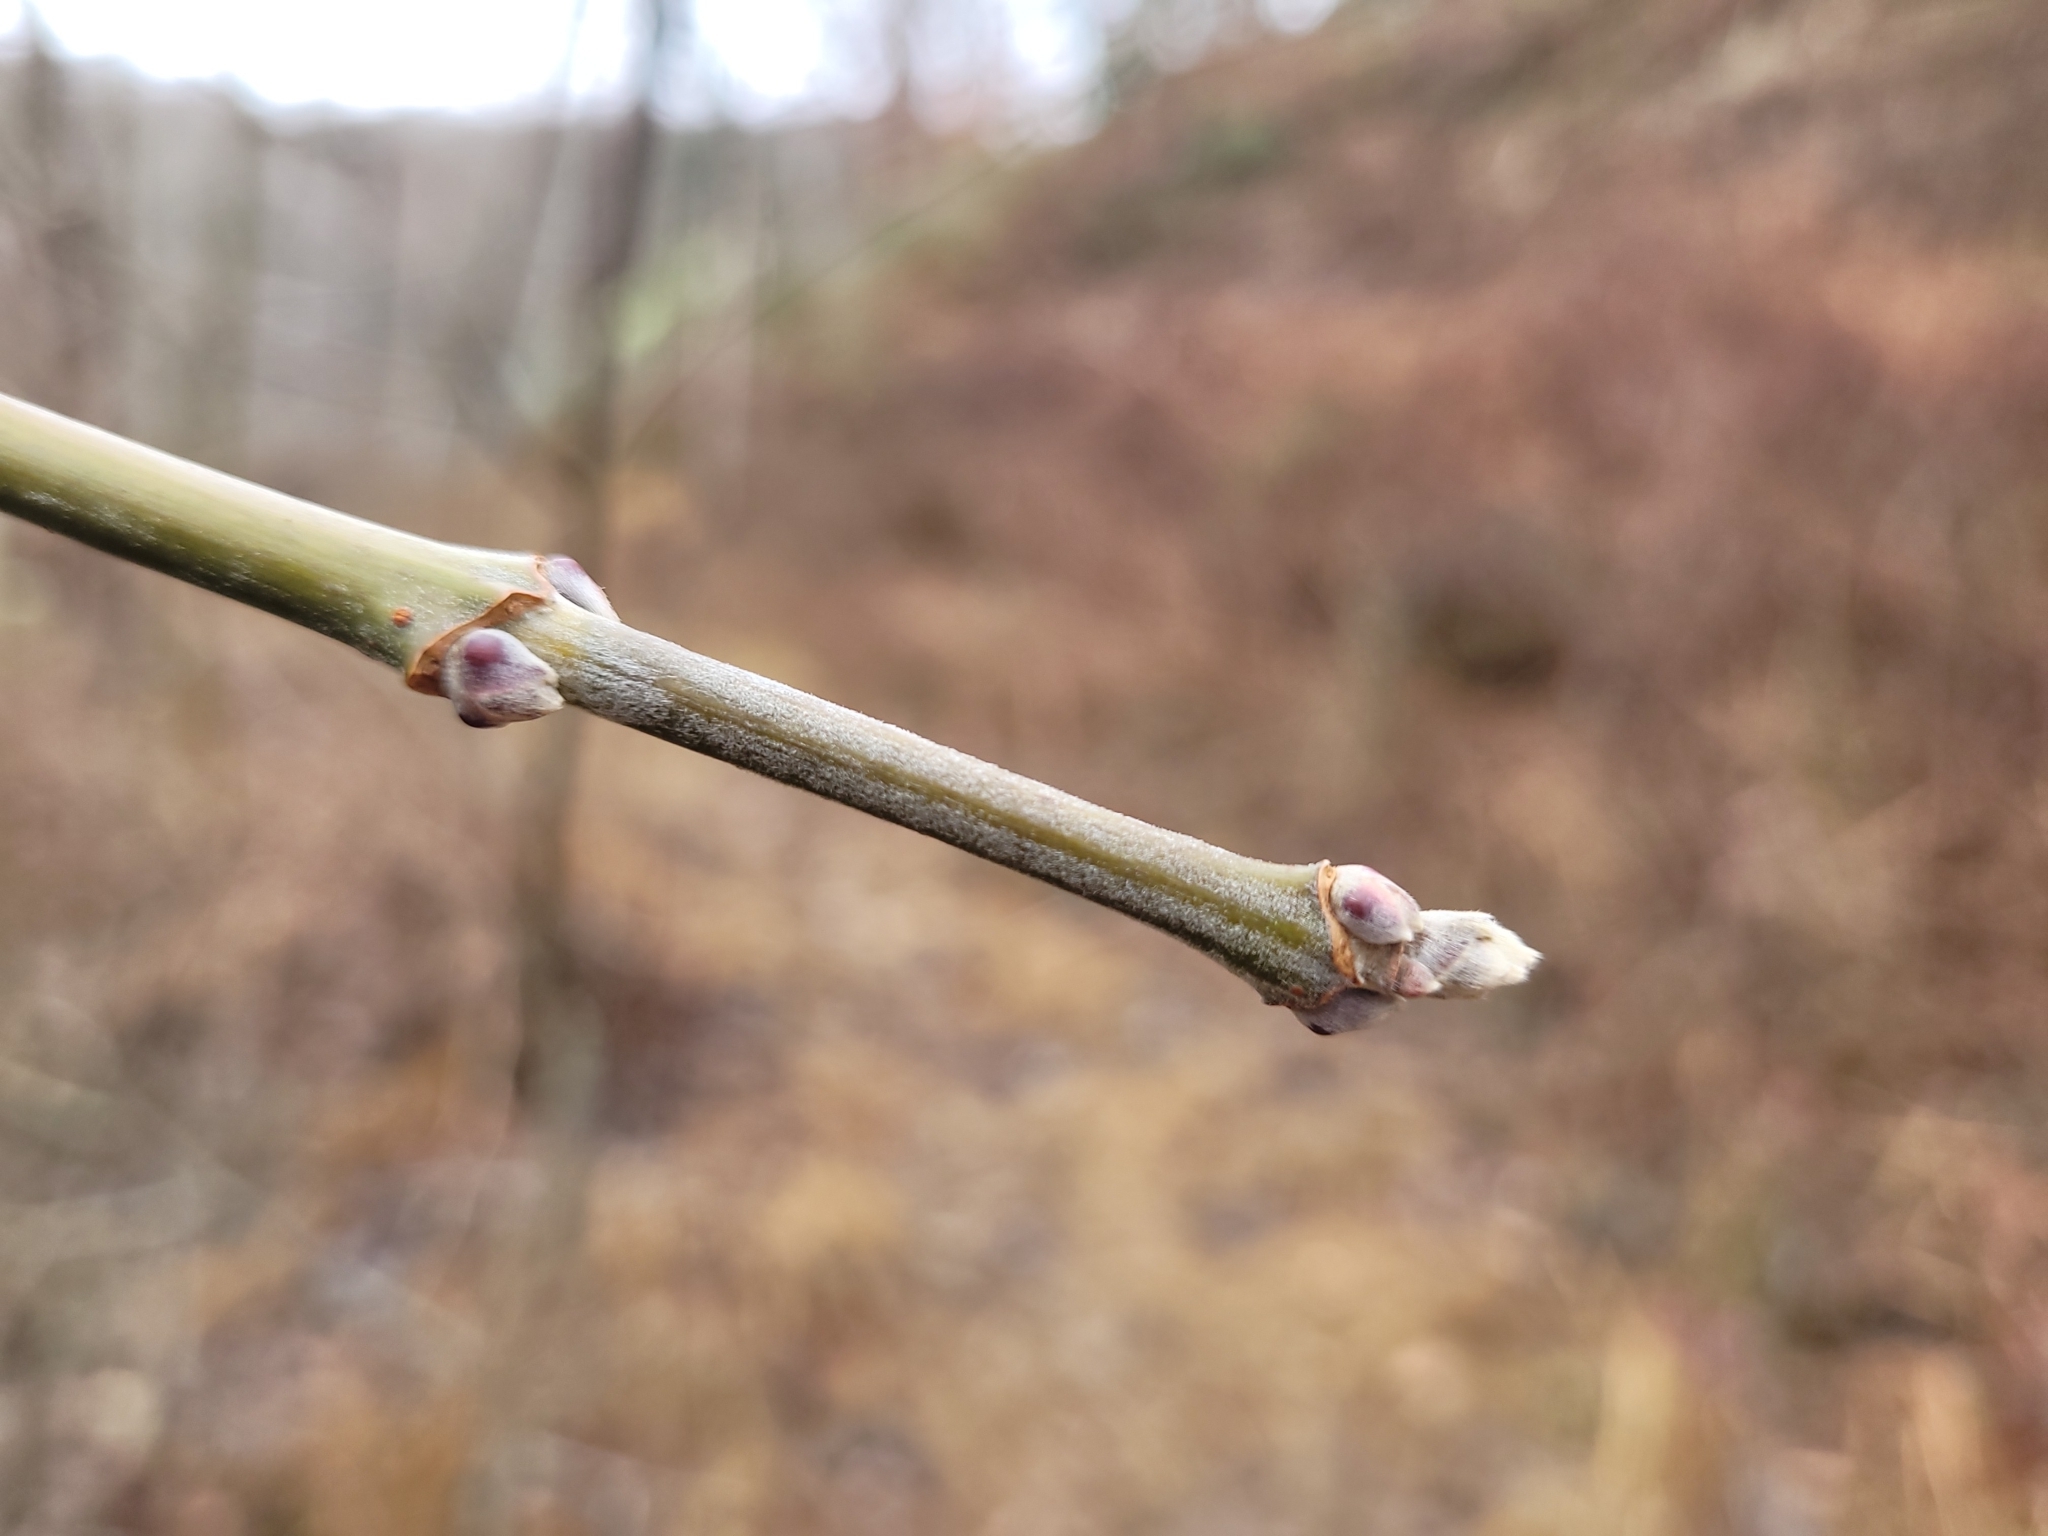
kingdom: Plantae
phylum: Tracheophyta
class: Magnoliopsida
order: Sapindales
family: Sapindaceae
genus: Acer
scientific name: Acer negundo
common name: Ashleaf maple
